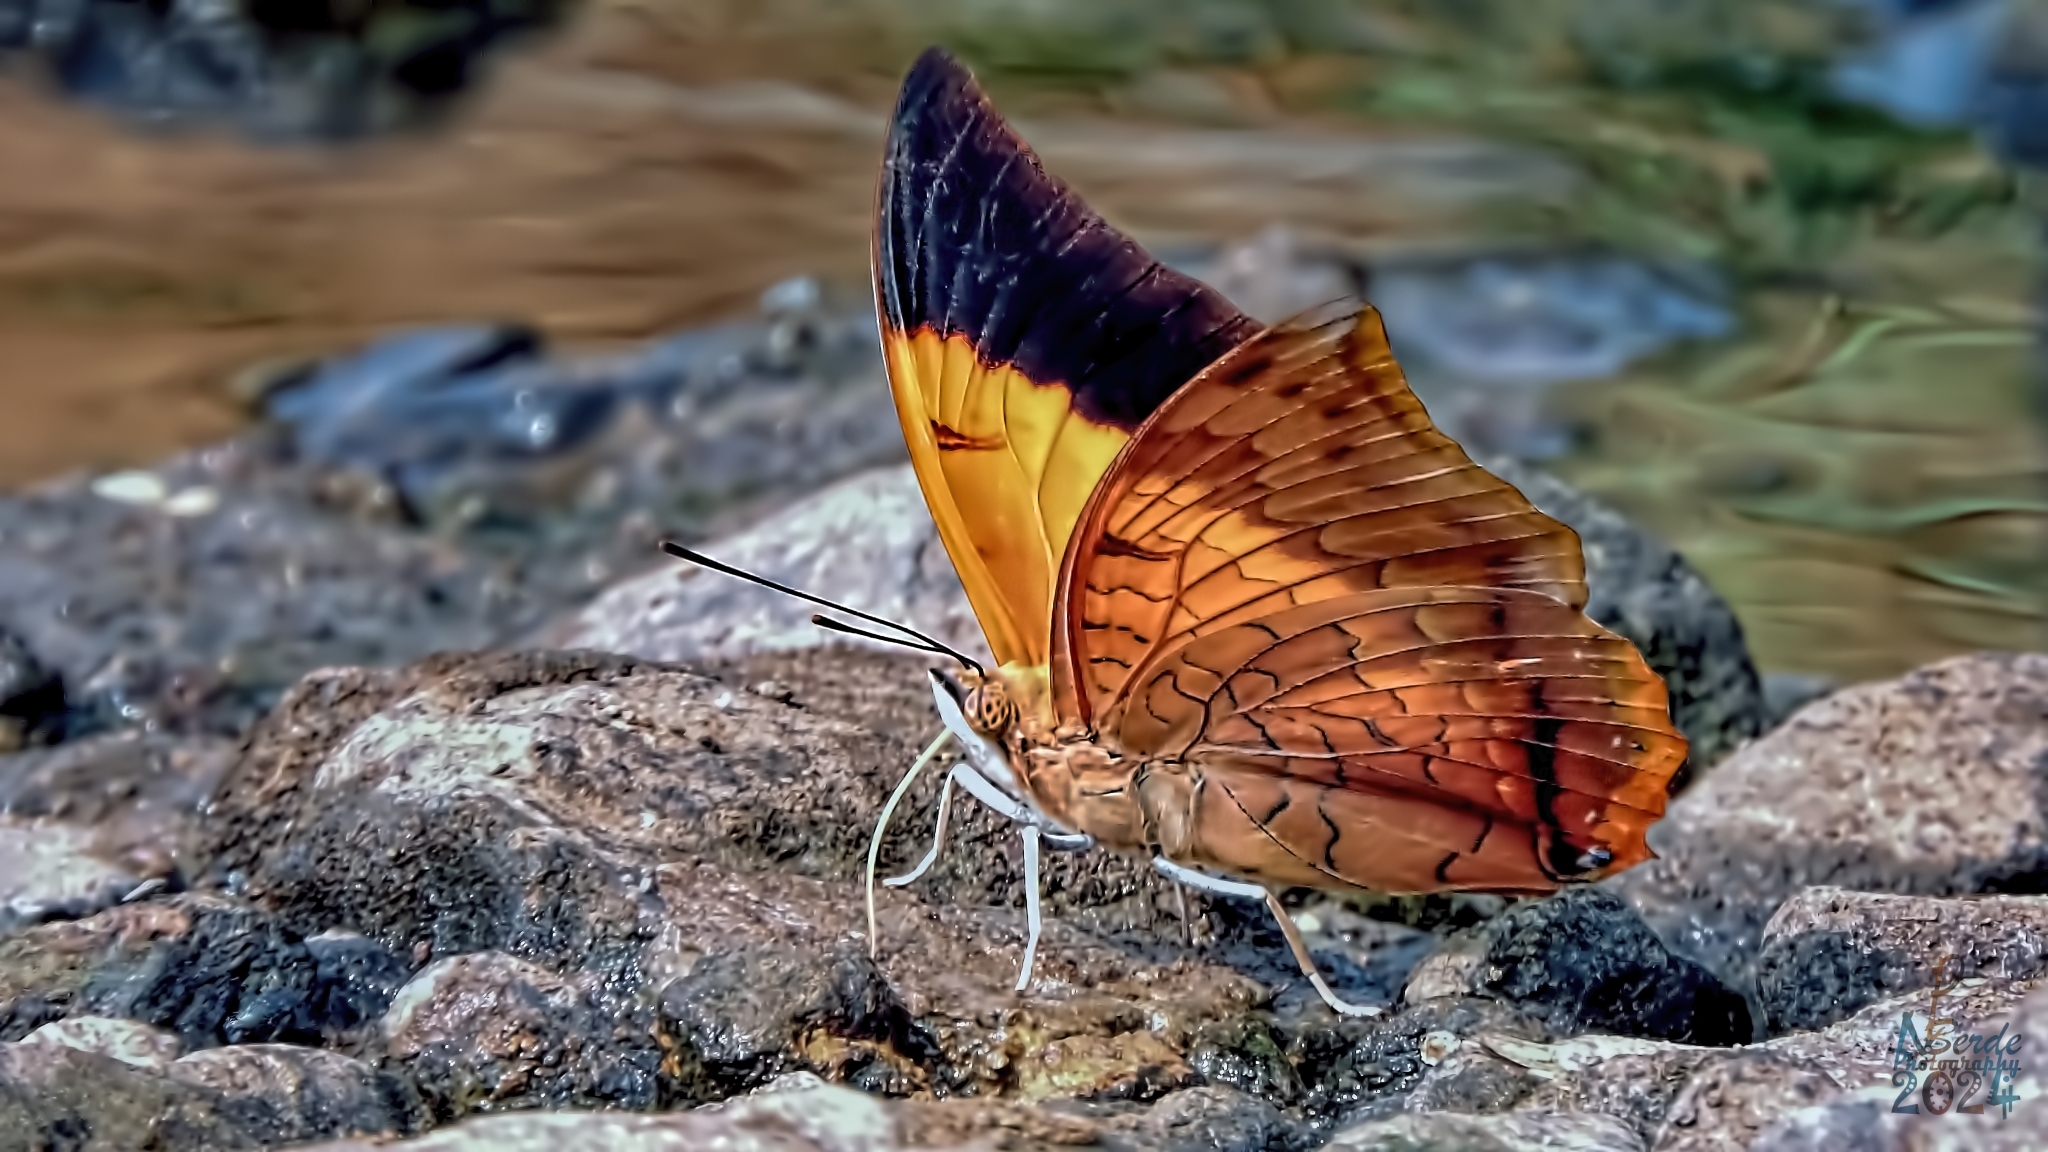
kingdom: Animalia
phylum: Arthropoda
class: Insecta
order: Lepidoptera
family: Nymphalidae
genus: Charaxes
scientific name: Charaxes psaphon
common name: Plain tawny rajah
